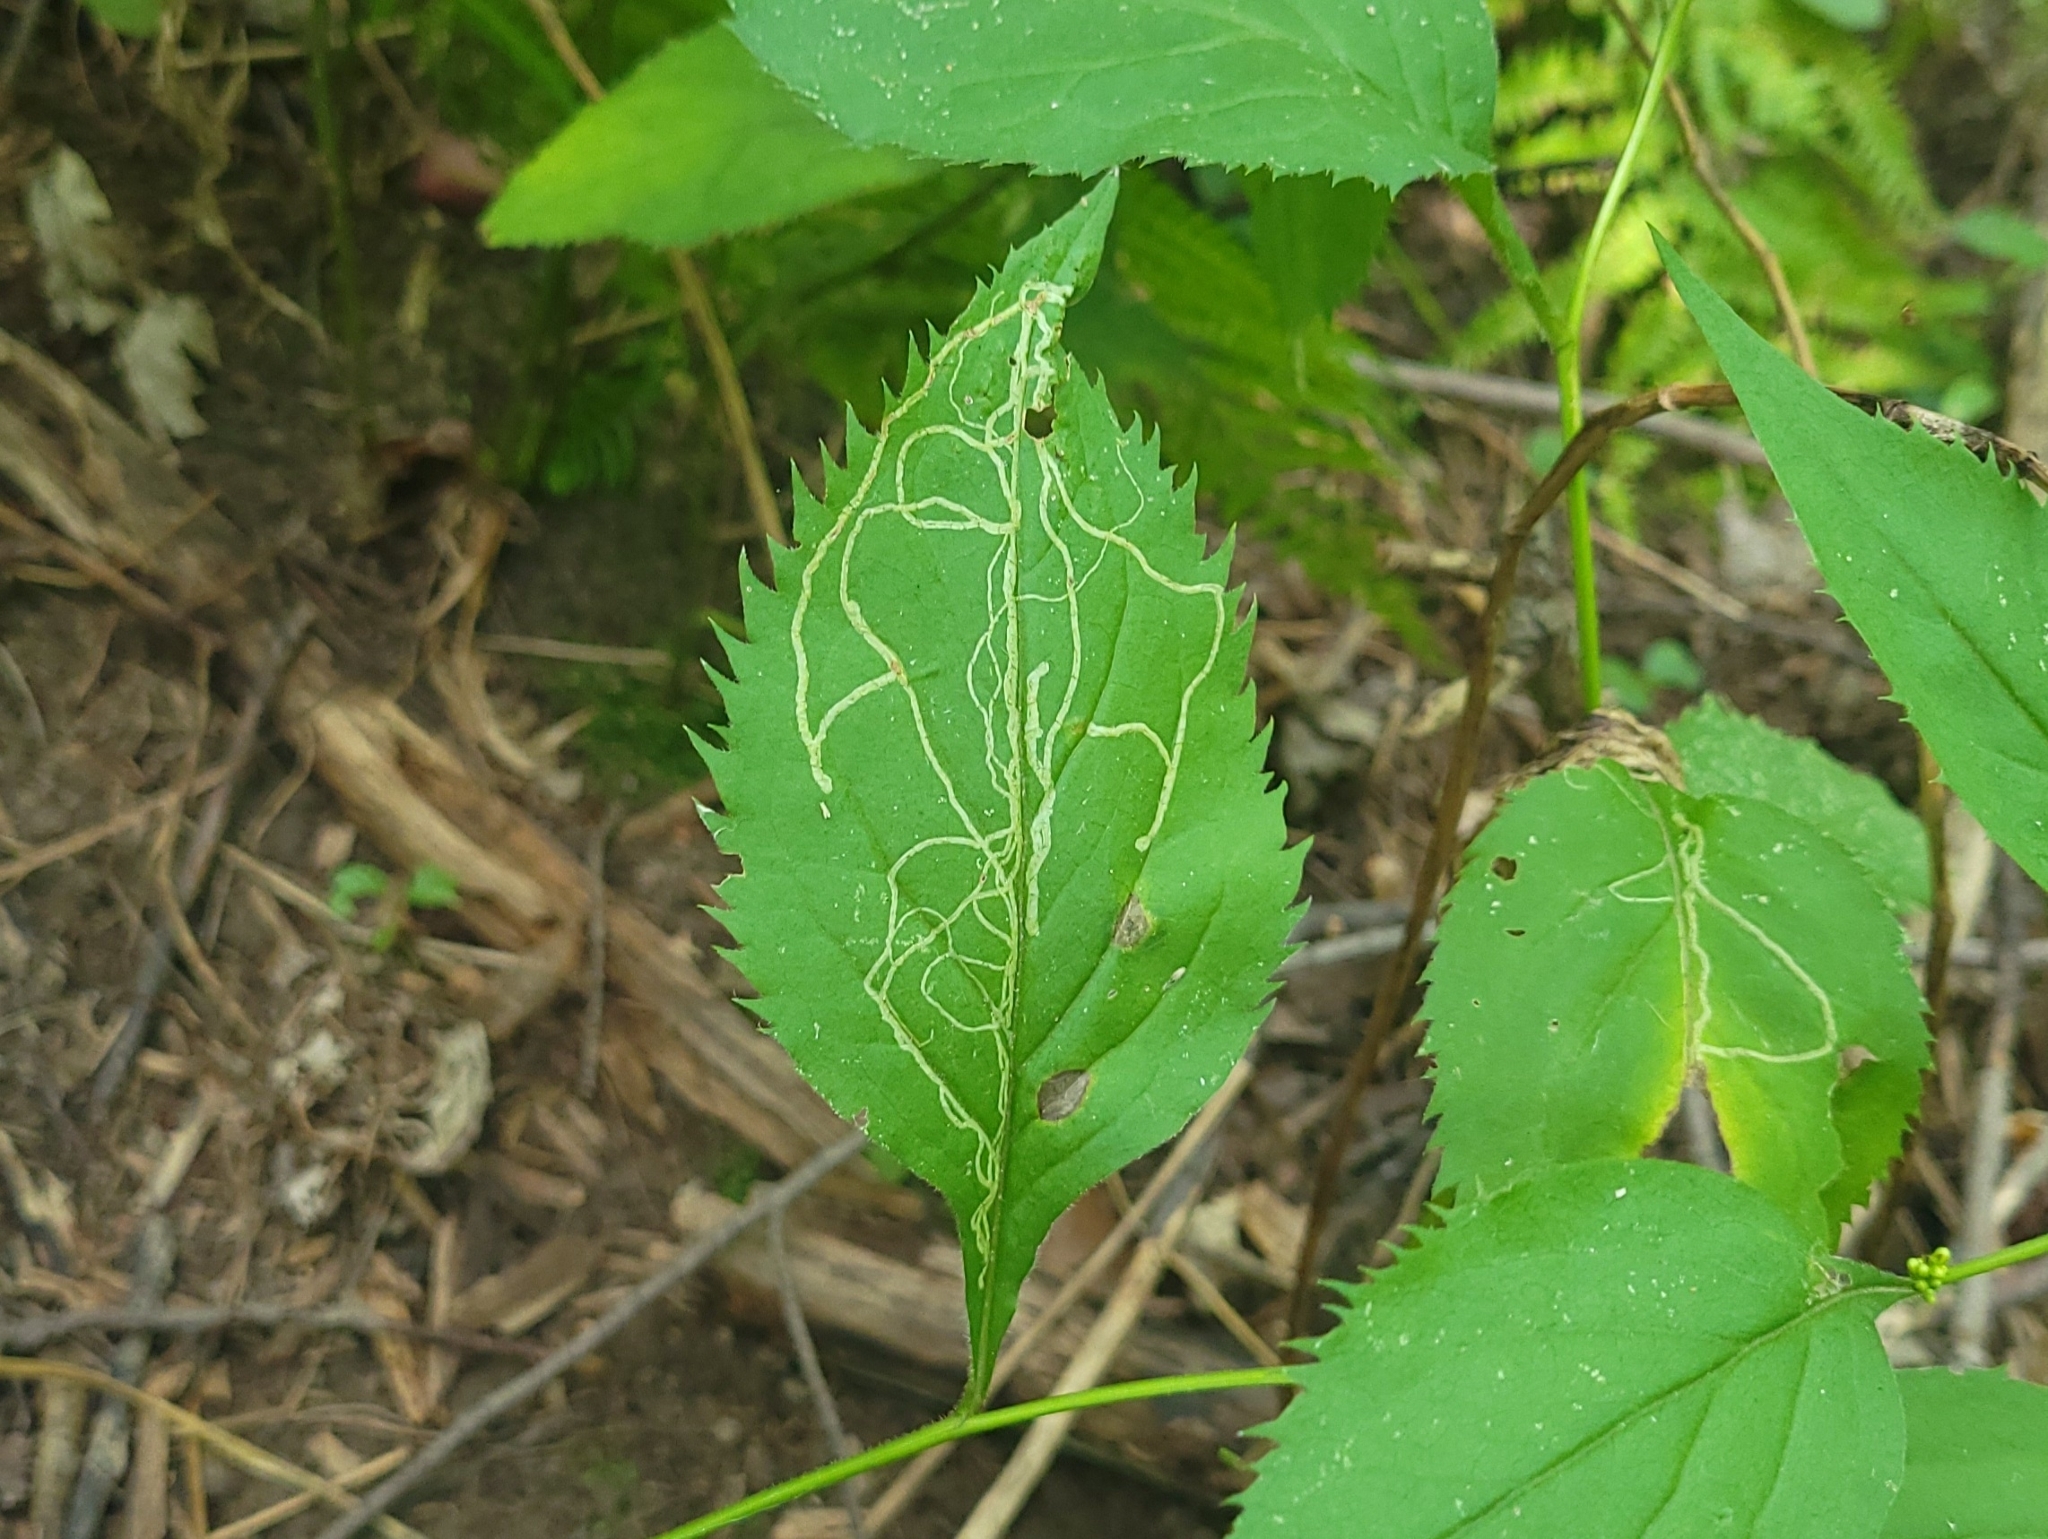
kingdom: Animalia
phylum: Arthropoda
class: Insecta
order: Diptera
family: Agromyzidae
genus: Ophiomyia
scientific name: Ophiomyia maura
